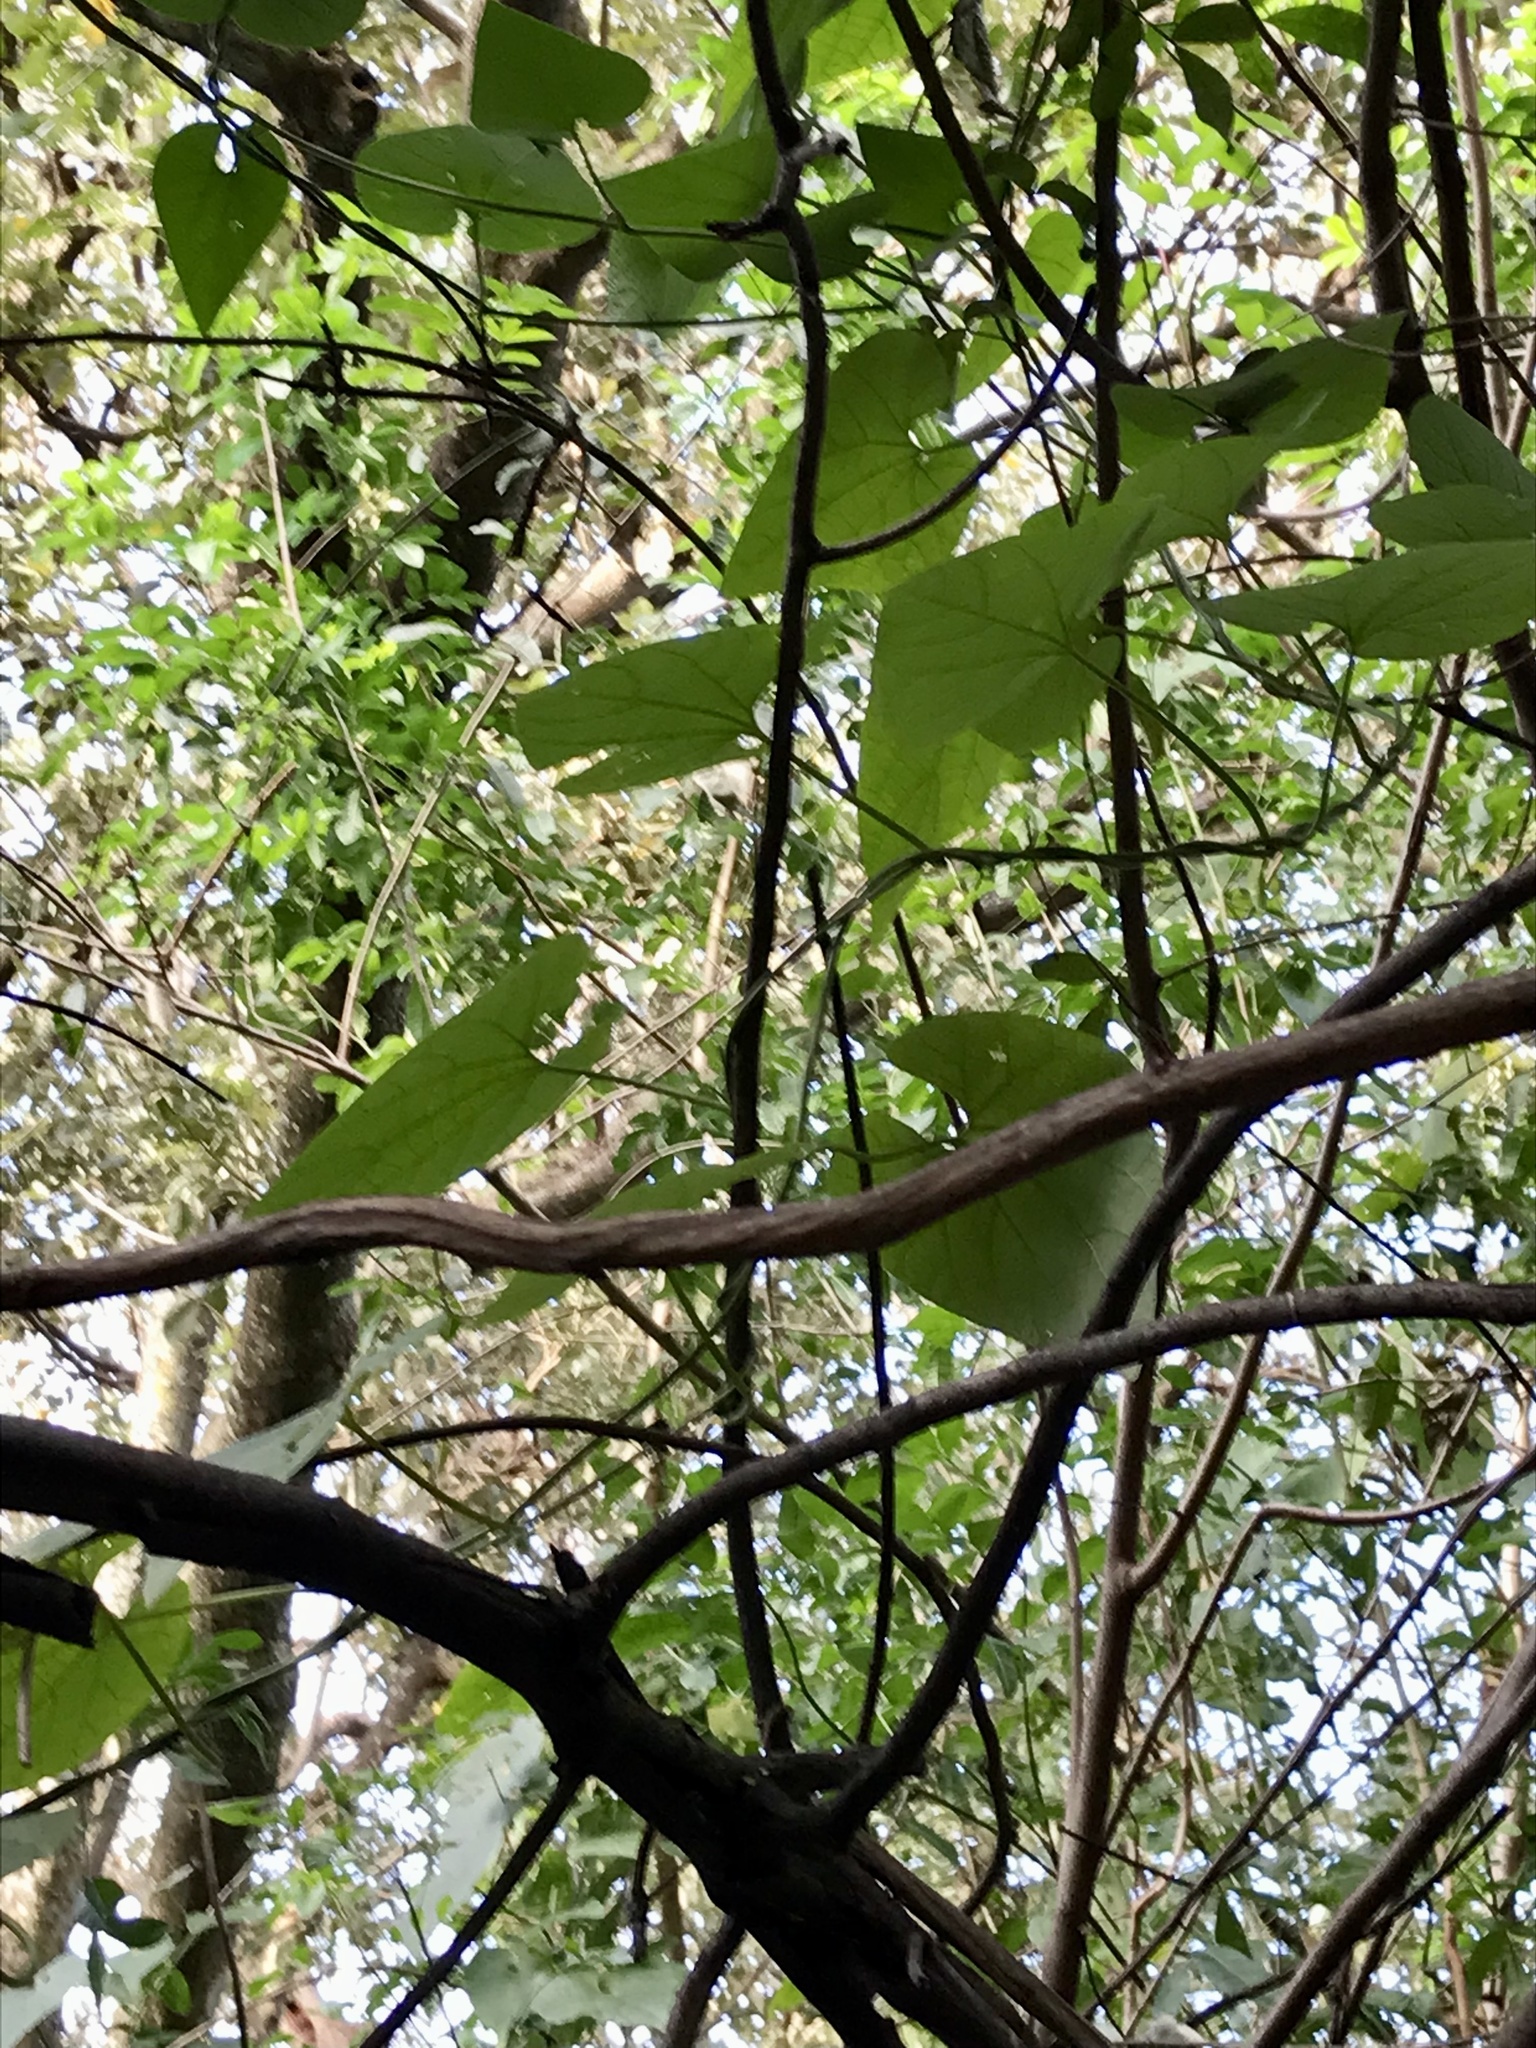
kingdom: Plantae
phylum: Tracheophyta
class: Magnoliopsida
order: Piperales
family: Aristolochiaceae
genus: Aristolochia
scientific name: Aristolochia grandiflora
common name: Pelicanflower
